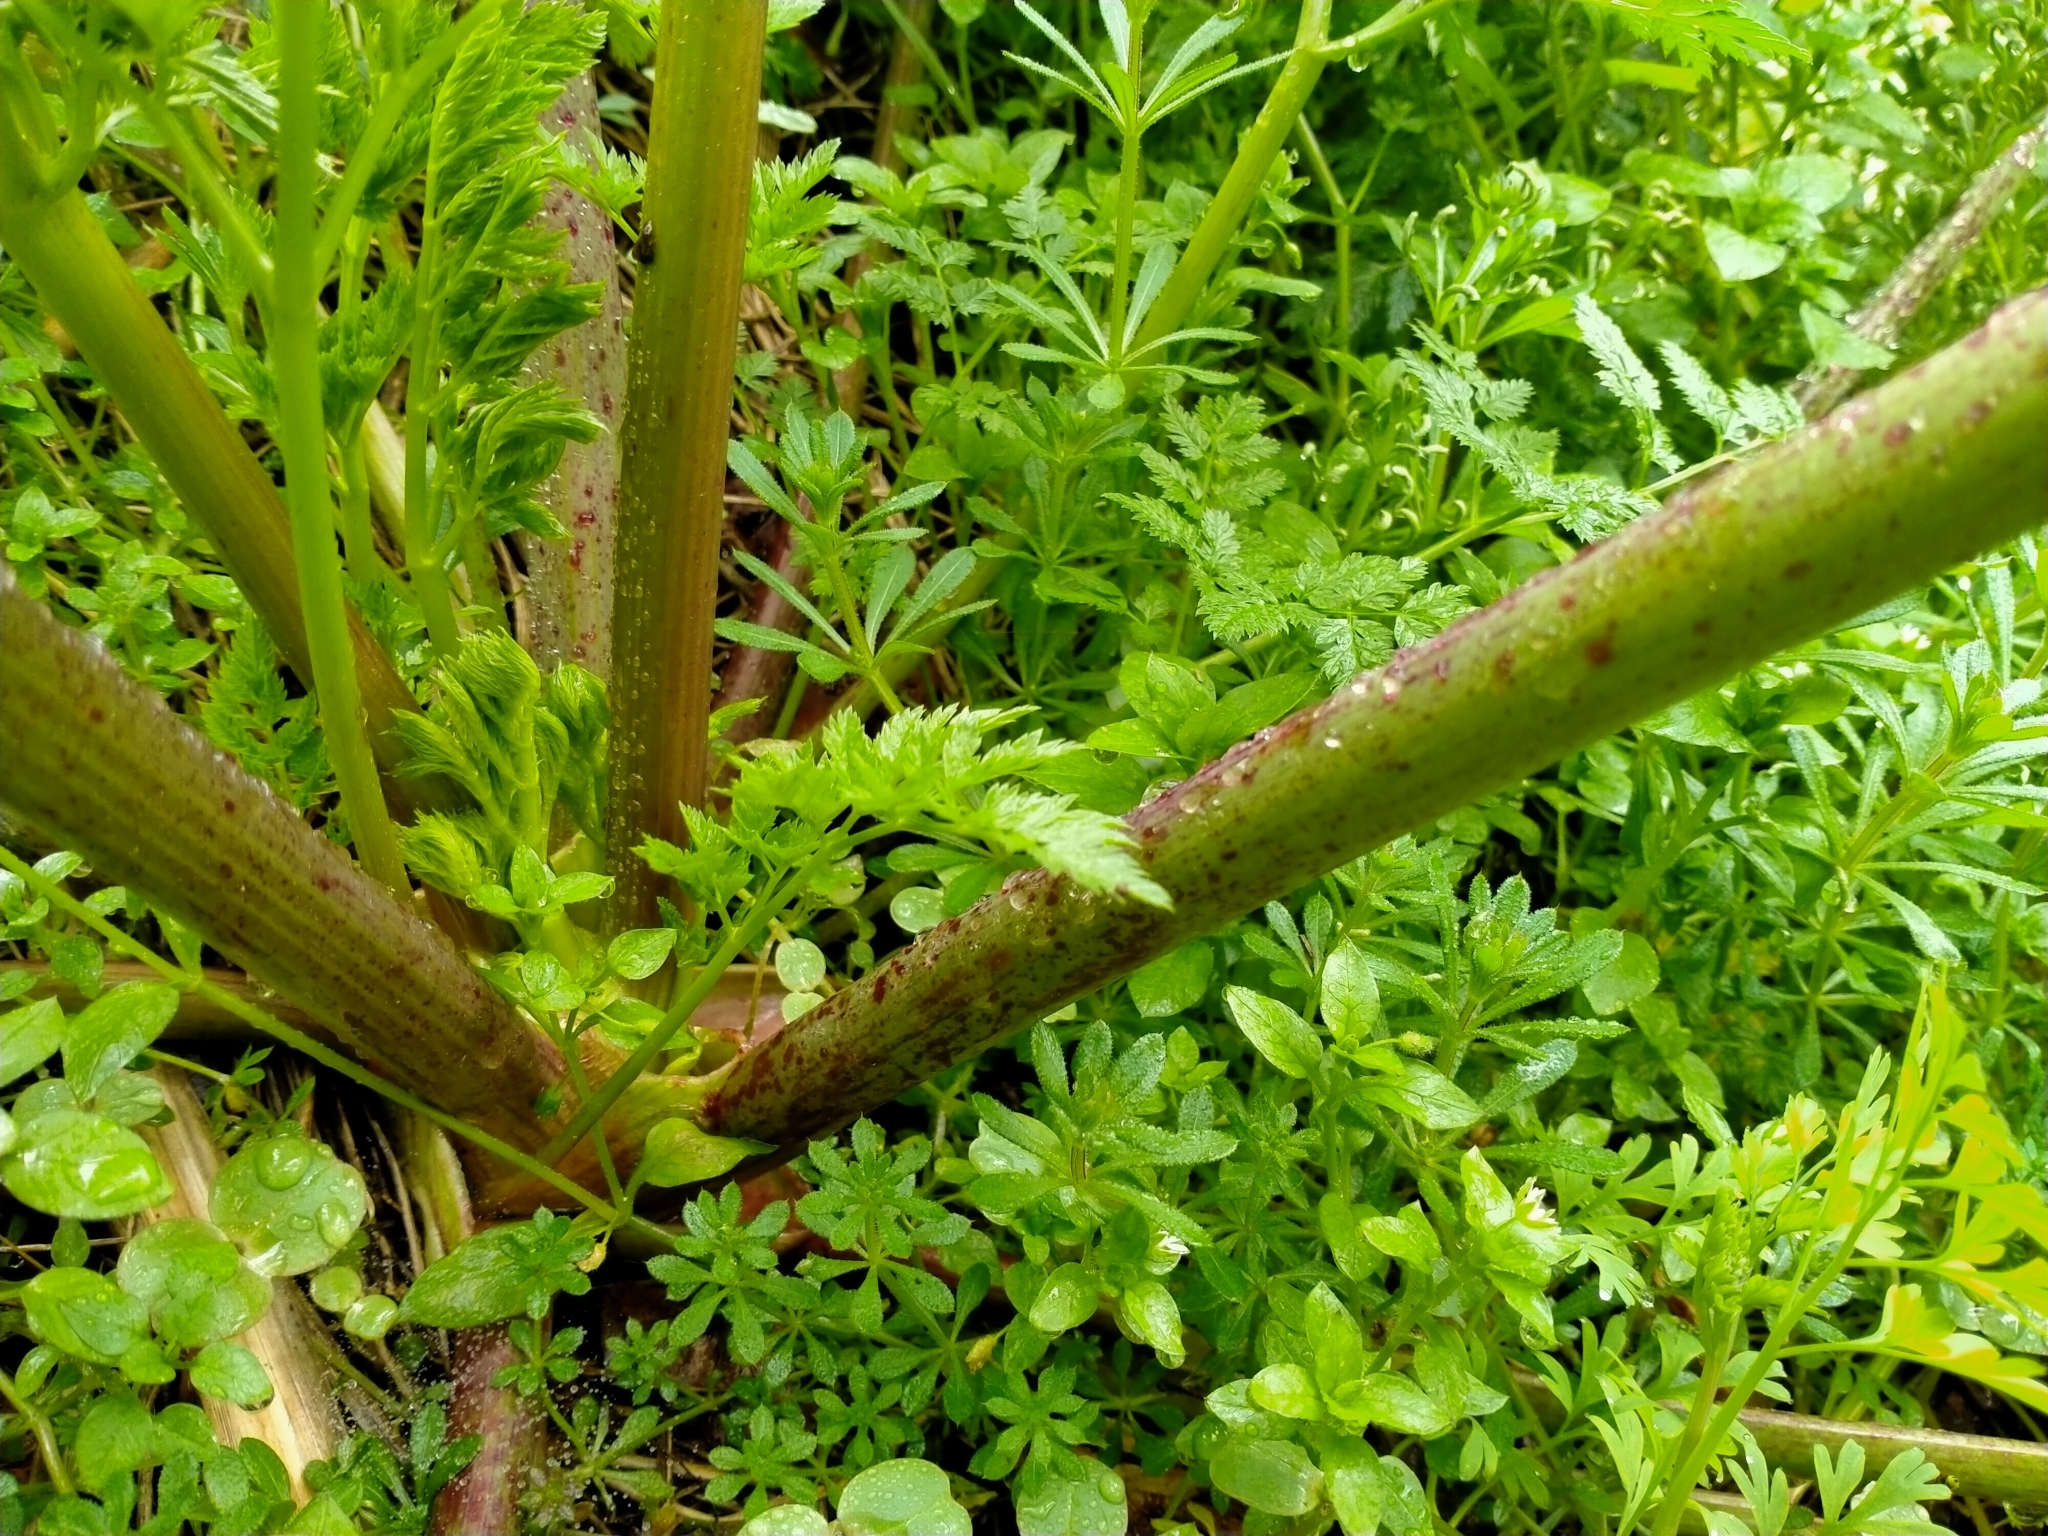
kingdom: Plantae
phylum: Tracheophyta
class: Magnoliopsida
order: Apiales
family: Apiaceae
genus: Conium
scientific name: Conium maculatum
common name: Hemlock
